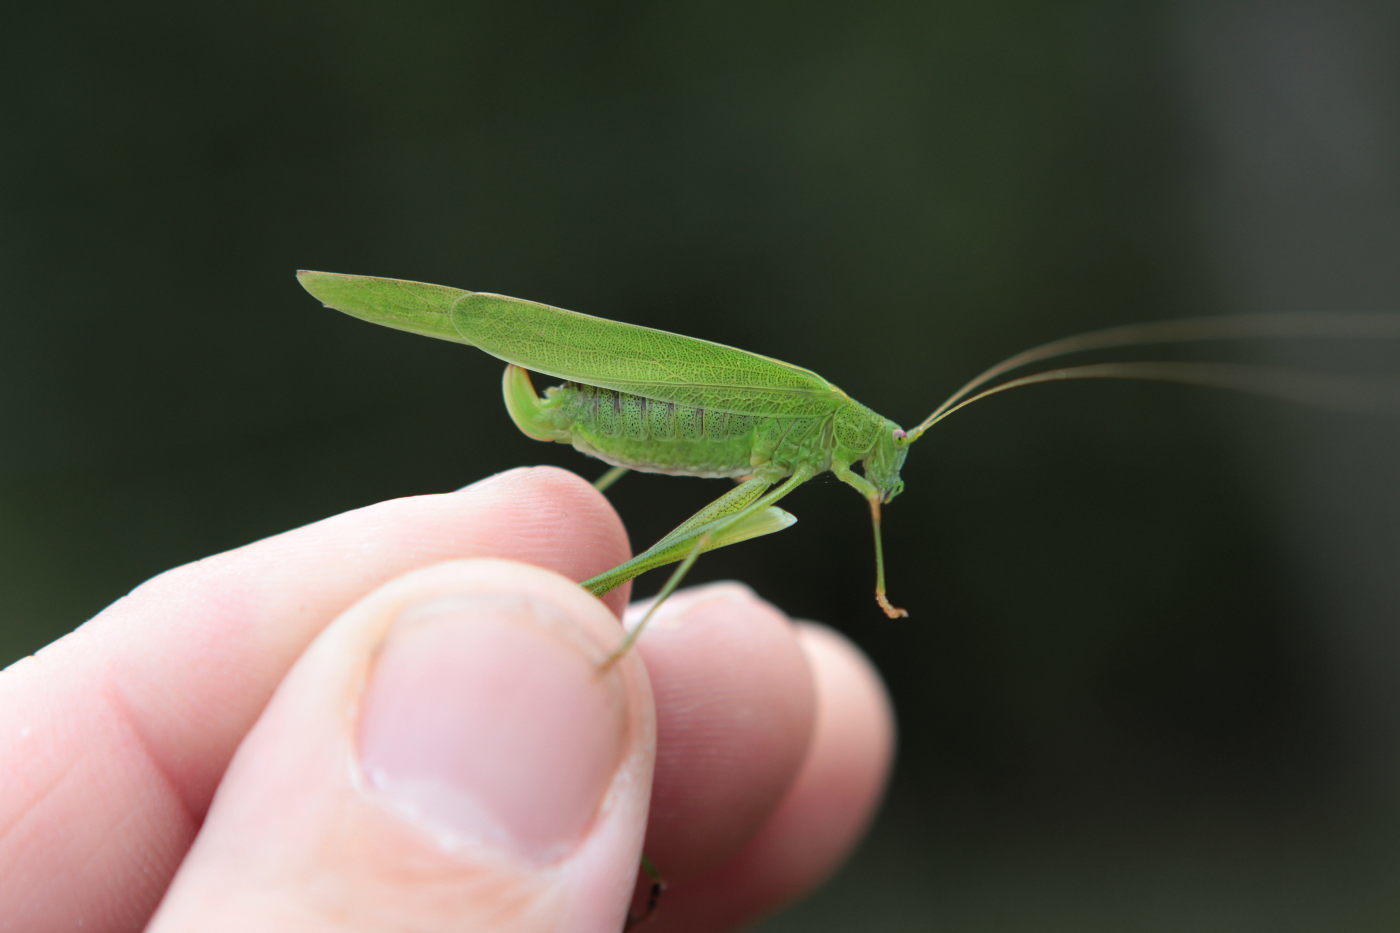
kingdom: Animalia
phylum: Arthropoda
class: Insecta
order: Orthoptera
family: Tettigoniidae
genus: Phaneroptera
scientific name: Phaneroptera falcata
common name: Sickle-bearing bush-cricket
